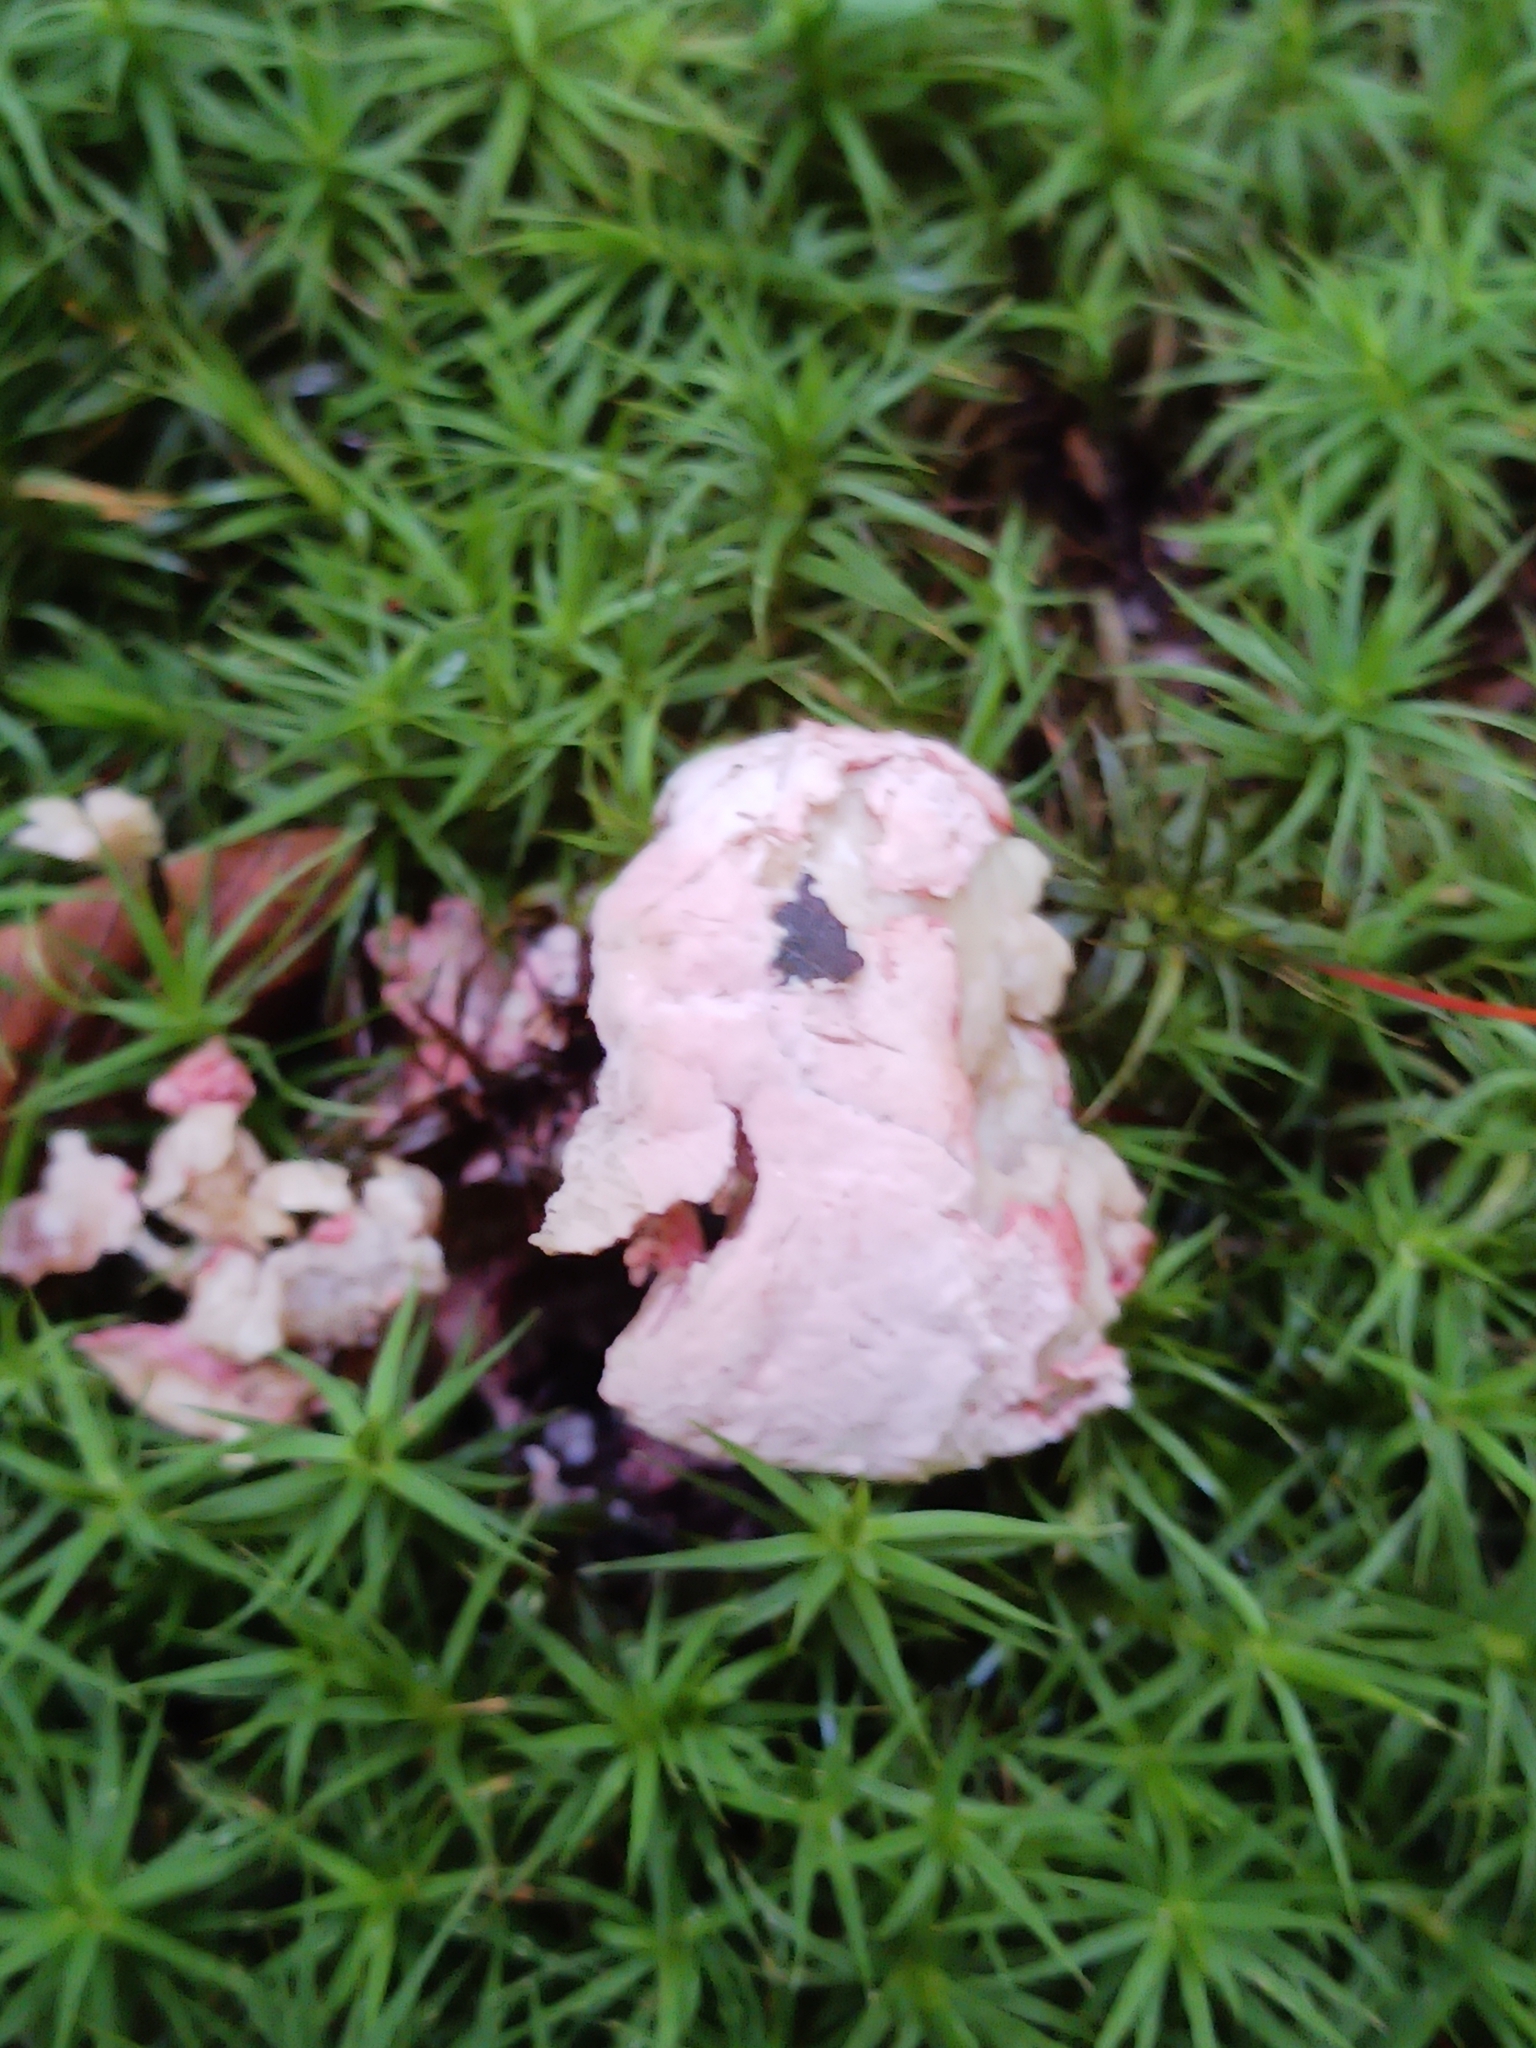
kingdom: Fungi
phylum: Ascomycota
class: Sordariomycetes
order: Hypocreales
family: Hypocreaceae
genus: Mycogone
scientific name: Mycogone rosea
